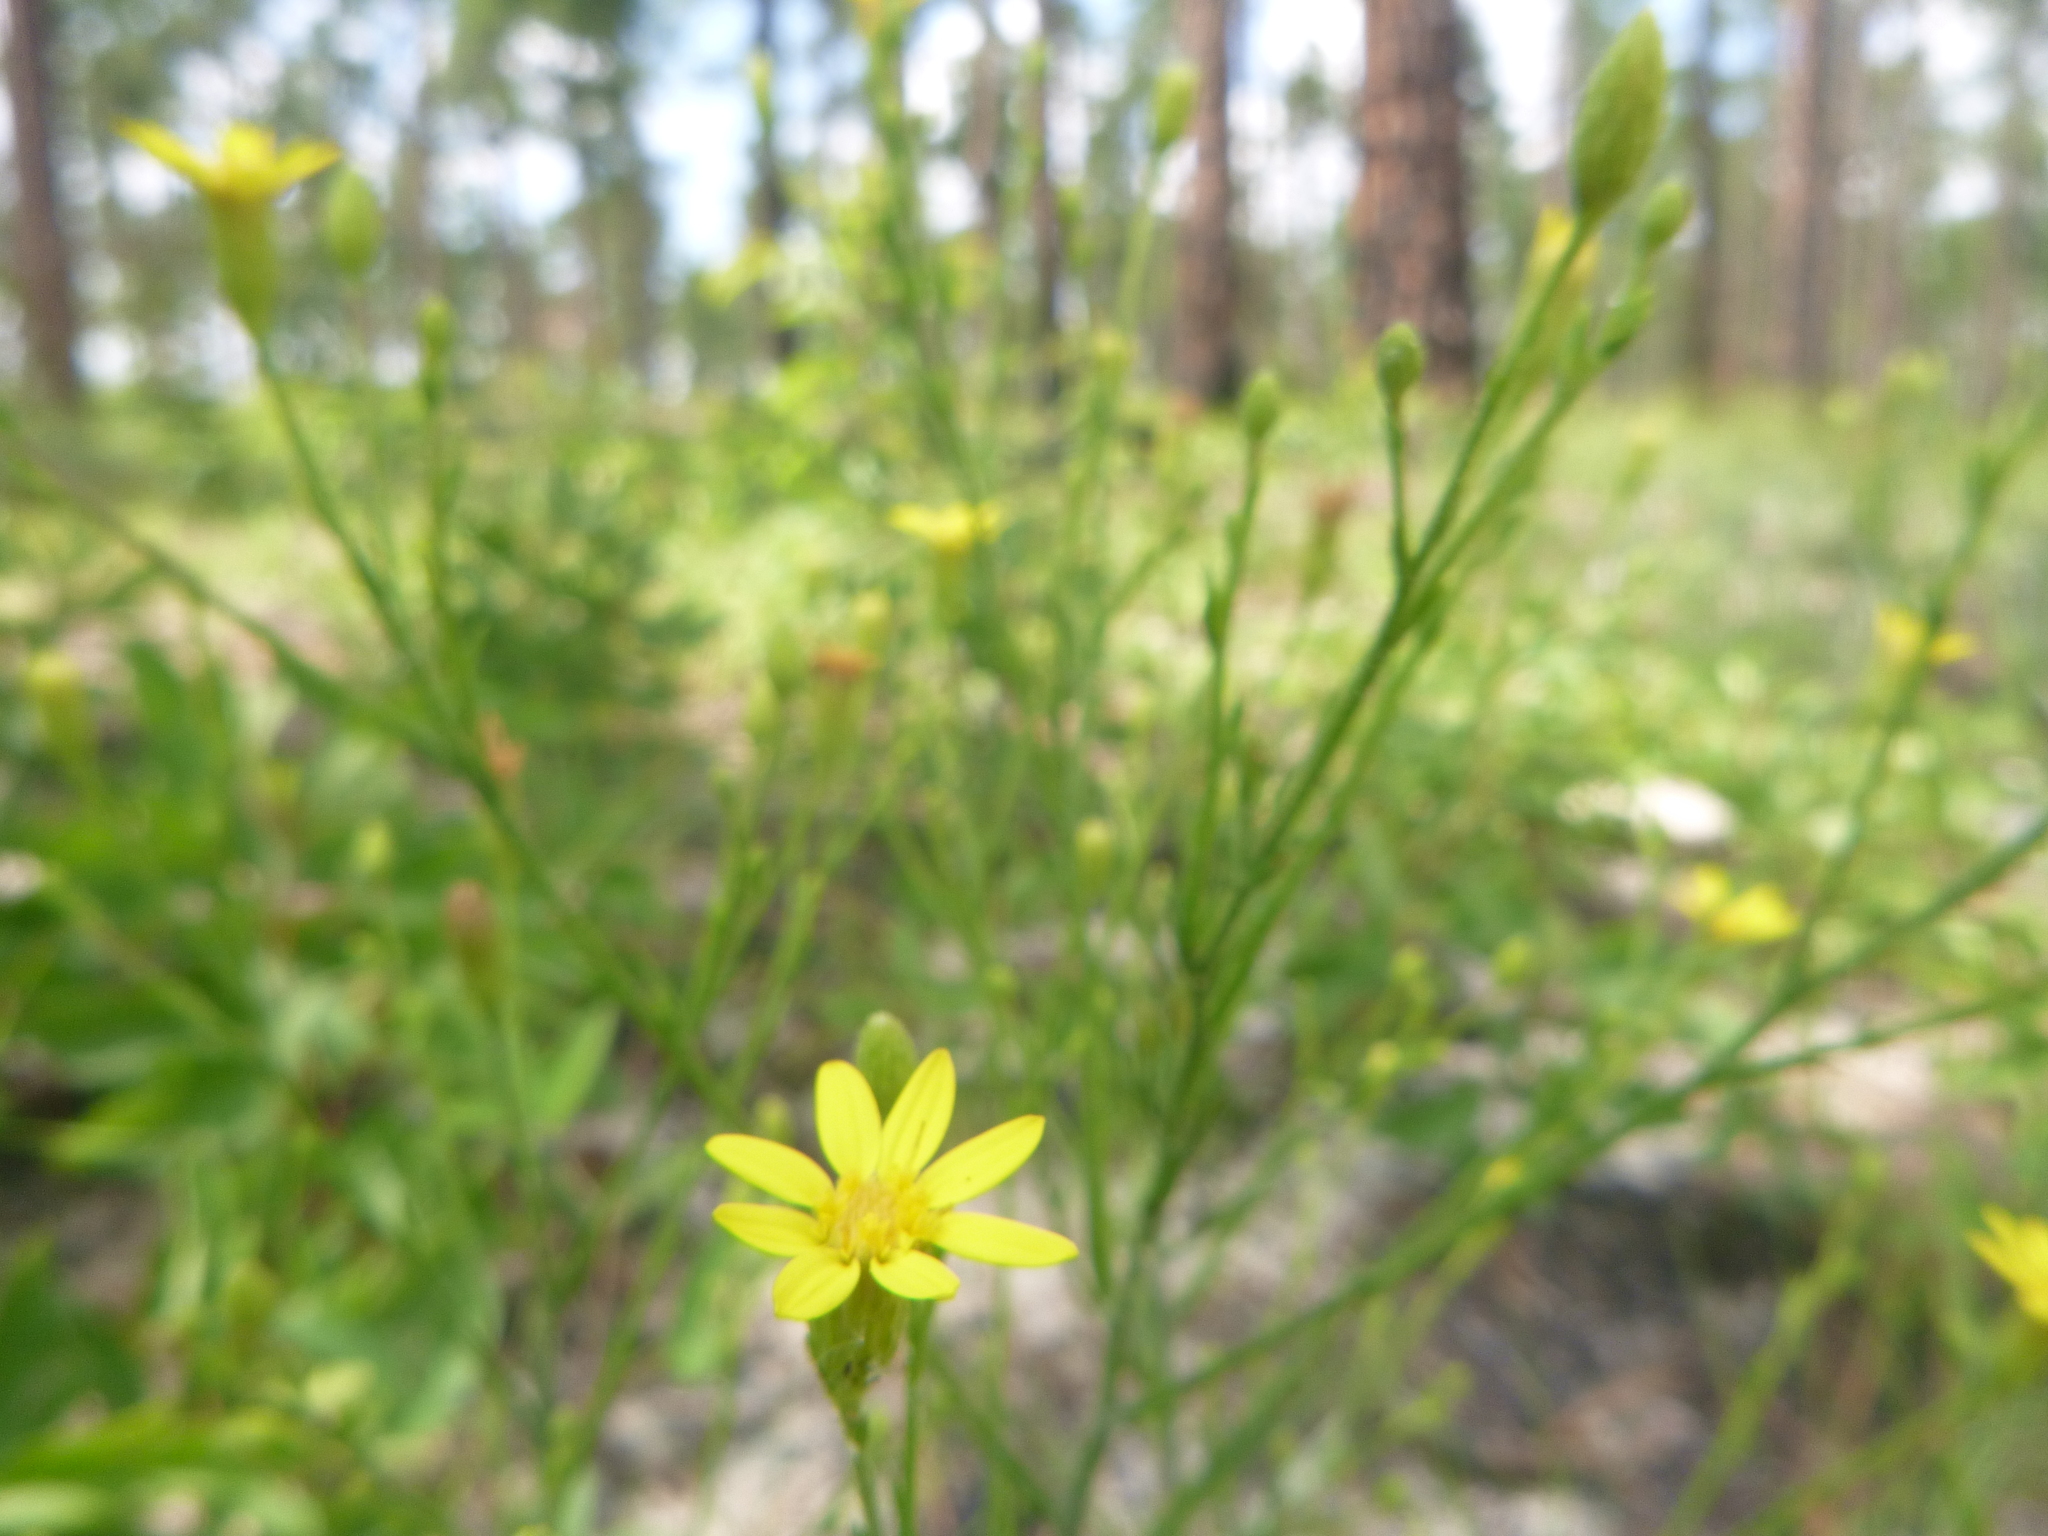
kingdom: Plantae
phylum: Tracheophyta
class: Magnoliopsida
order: Asterales
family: Asteraceae
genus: Pityopsis
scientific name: Pityopsis aspera
